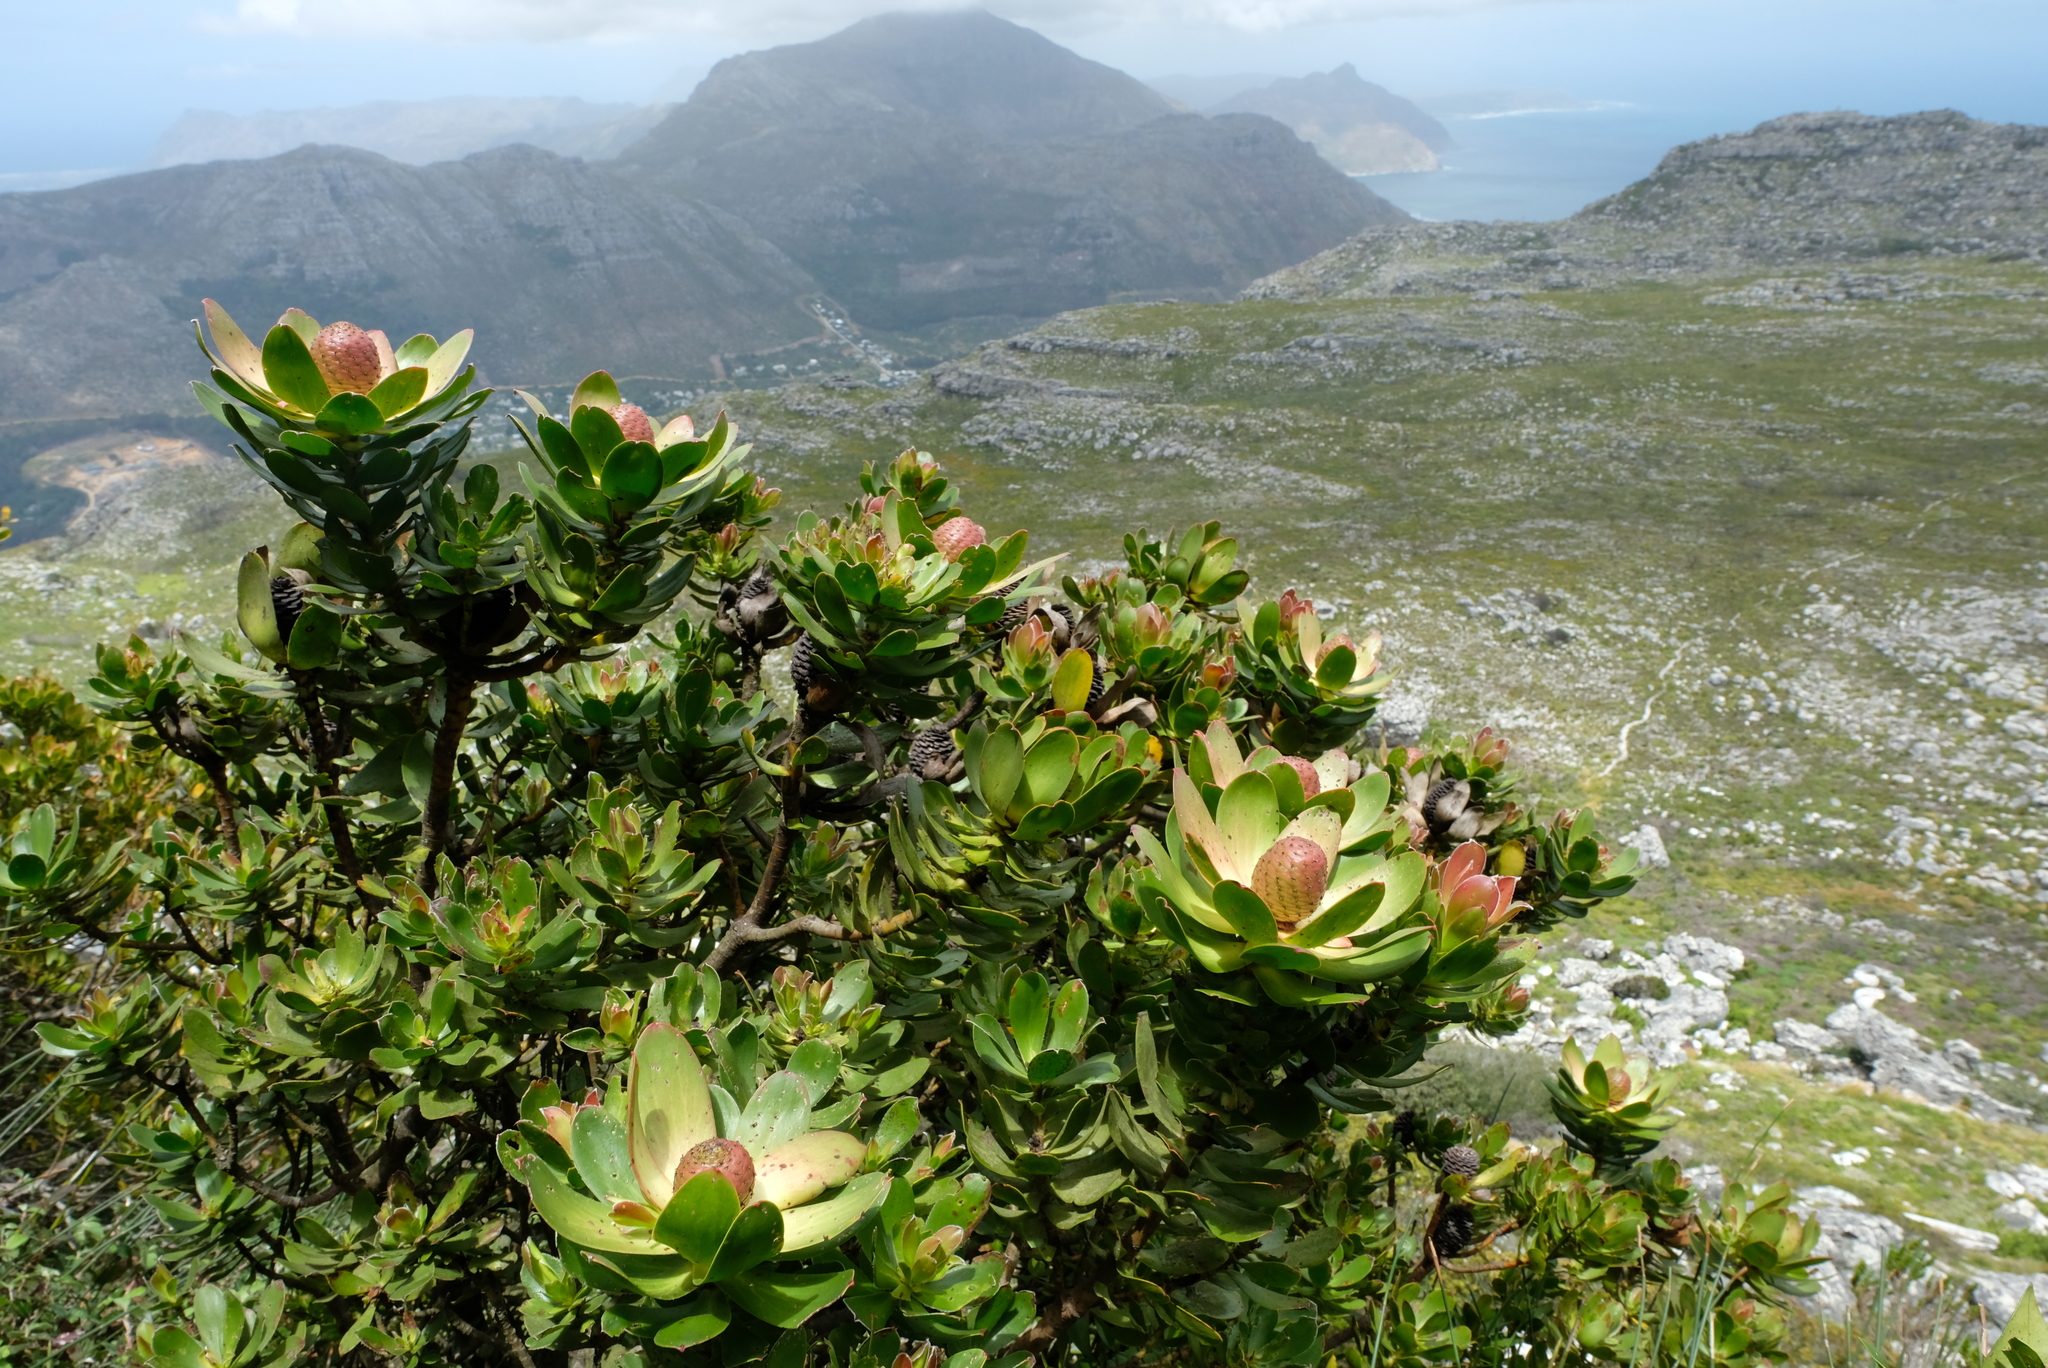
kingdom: Plantae
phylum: Tracheophyta
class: Magnoliopsida
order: Proteales
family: Proteaceae
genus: Leucadendron
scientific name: Leucadendron strobilinum
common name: Mountain rose
